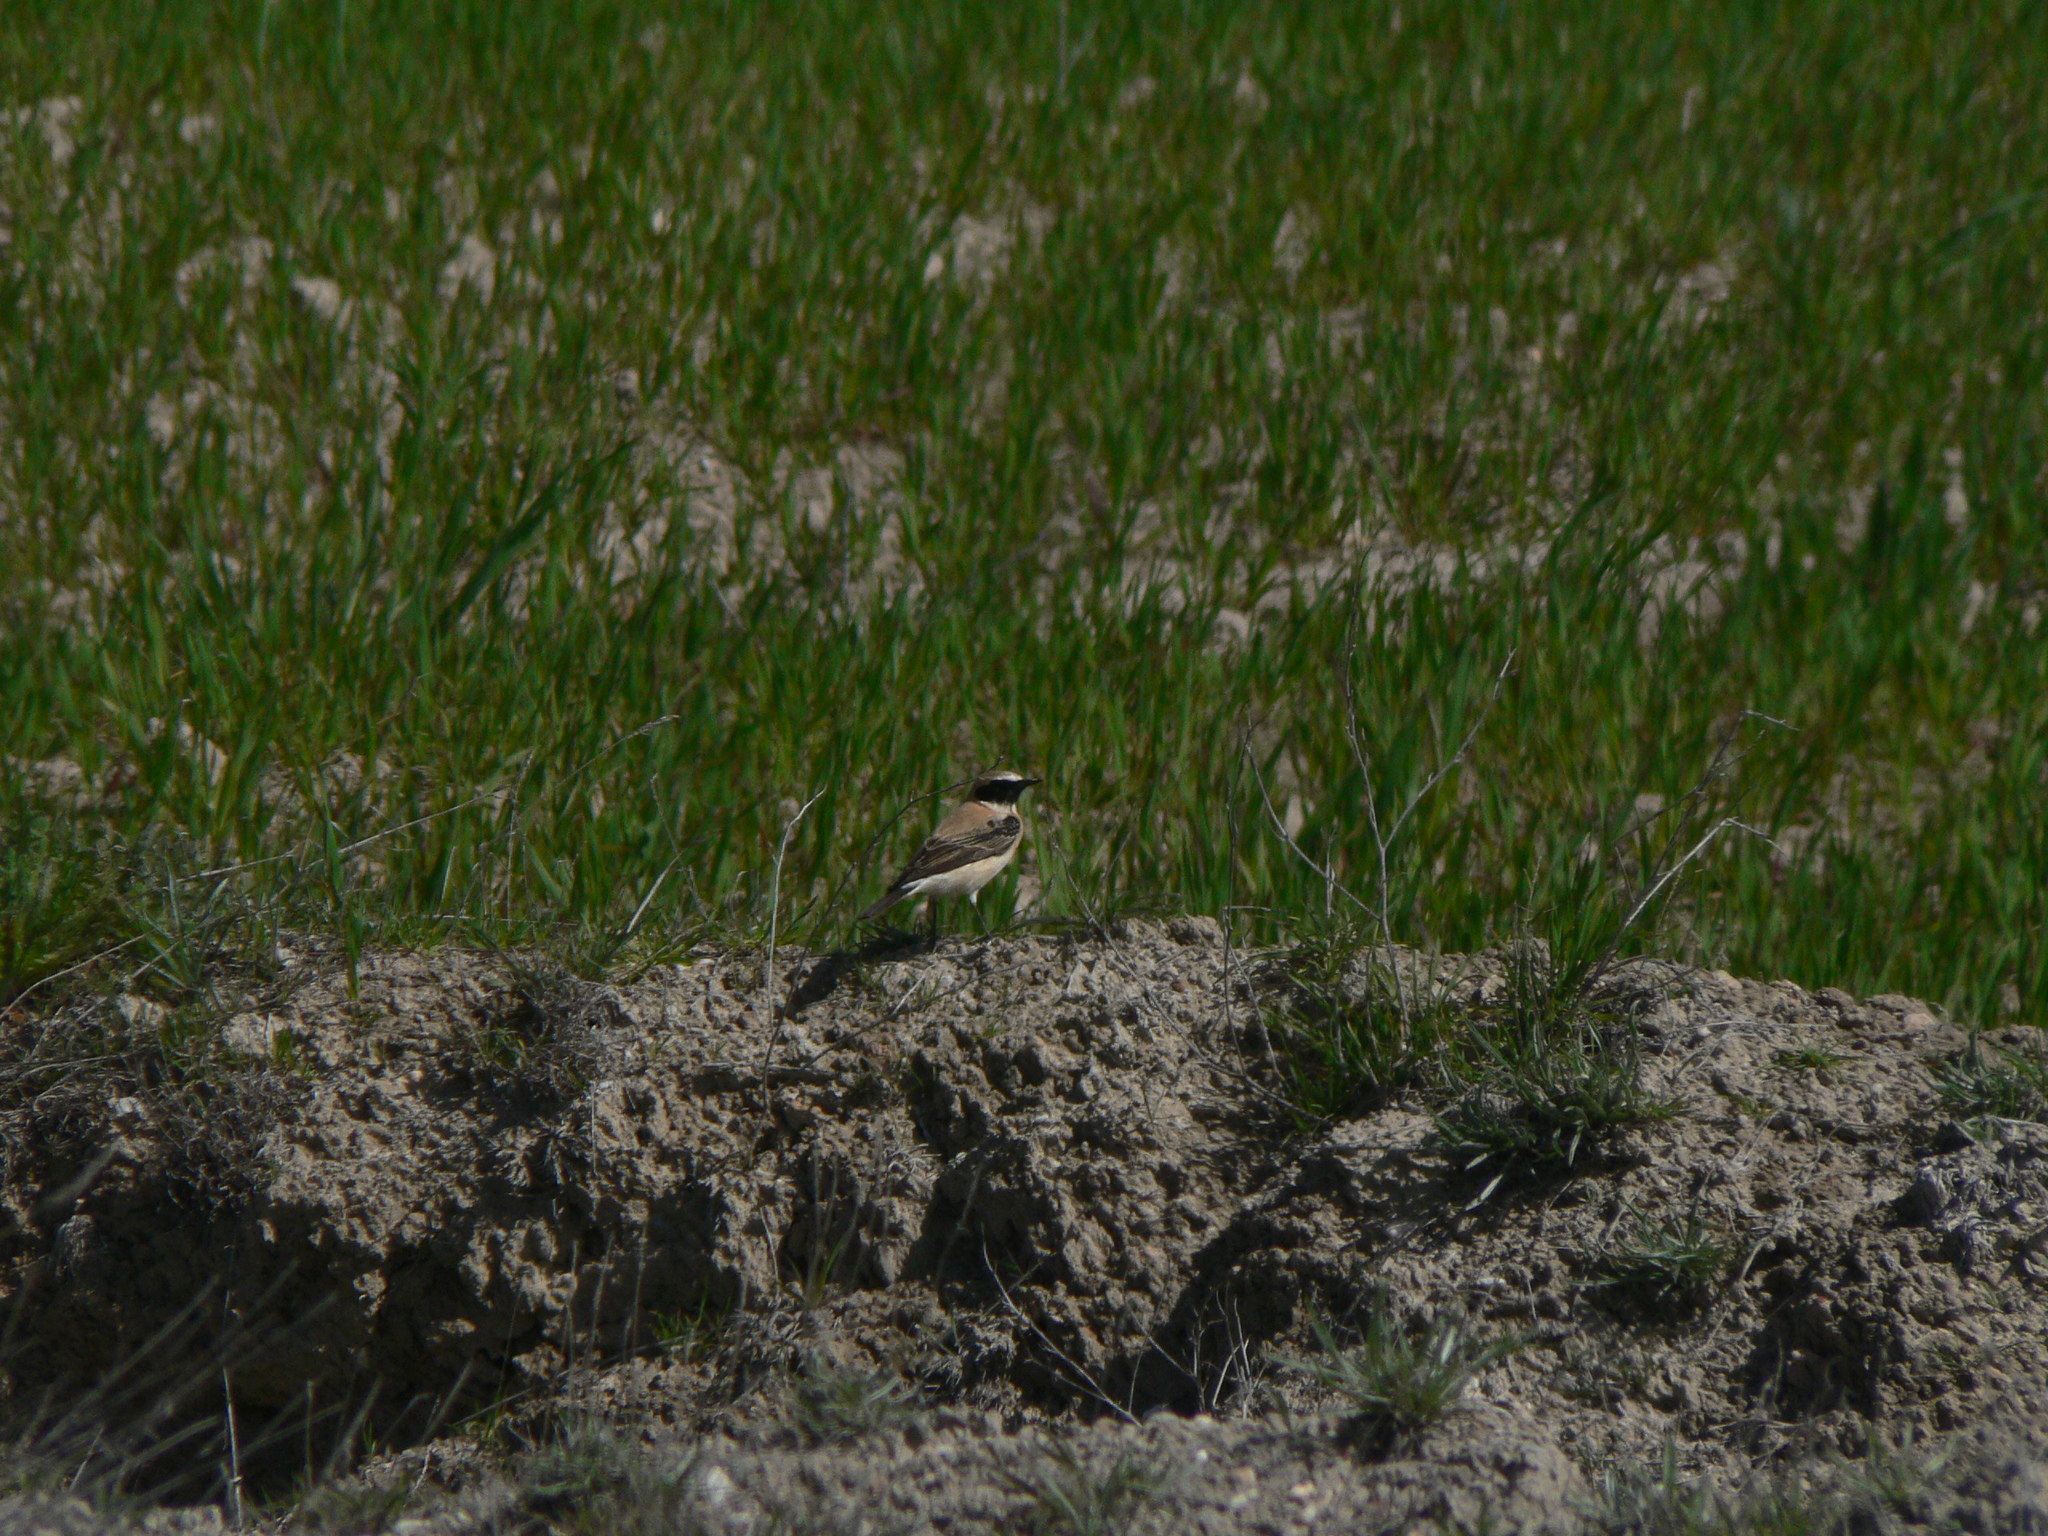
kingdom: Animalia
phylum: Chordata
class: Aves
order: Passeriformes
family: Muscicapidae
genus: Oenanthe
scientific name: Oenanthe hispanica
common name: Black-eared wheatear
